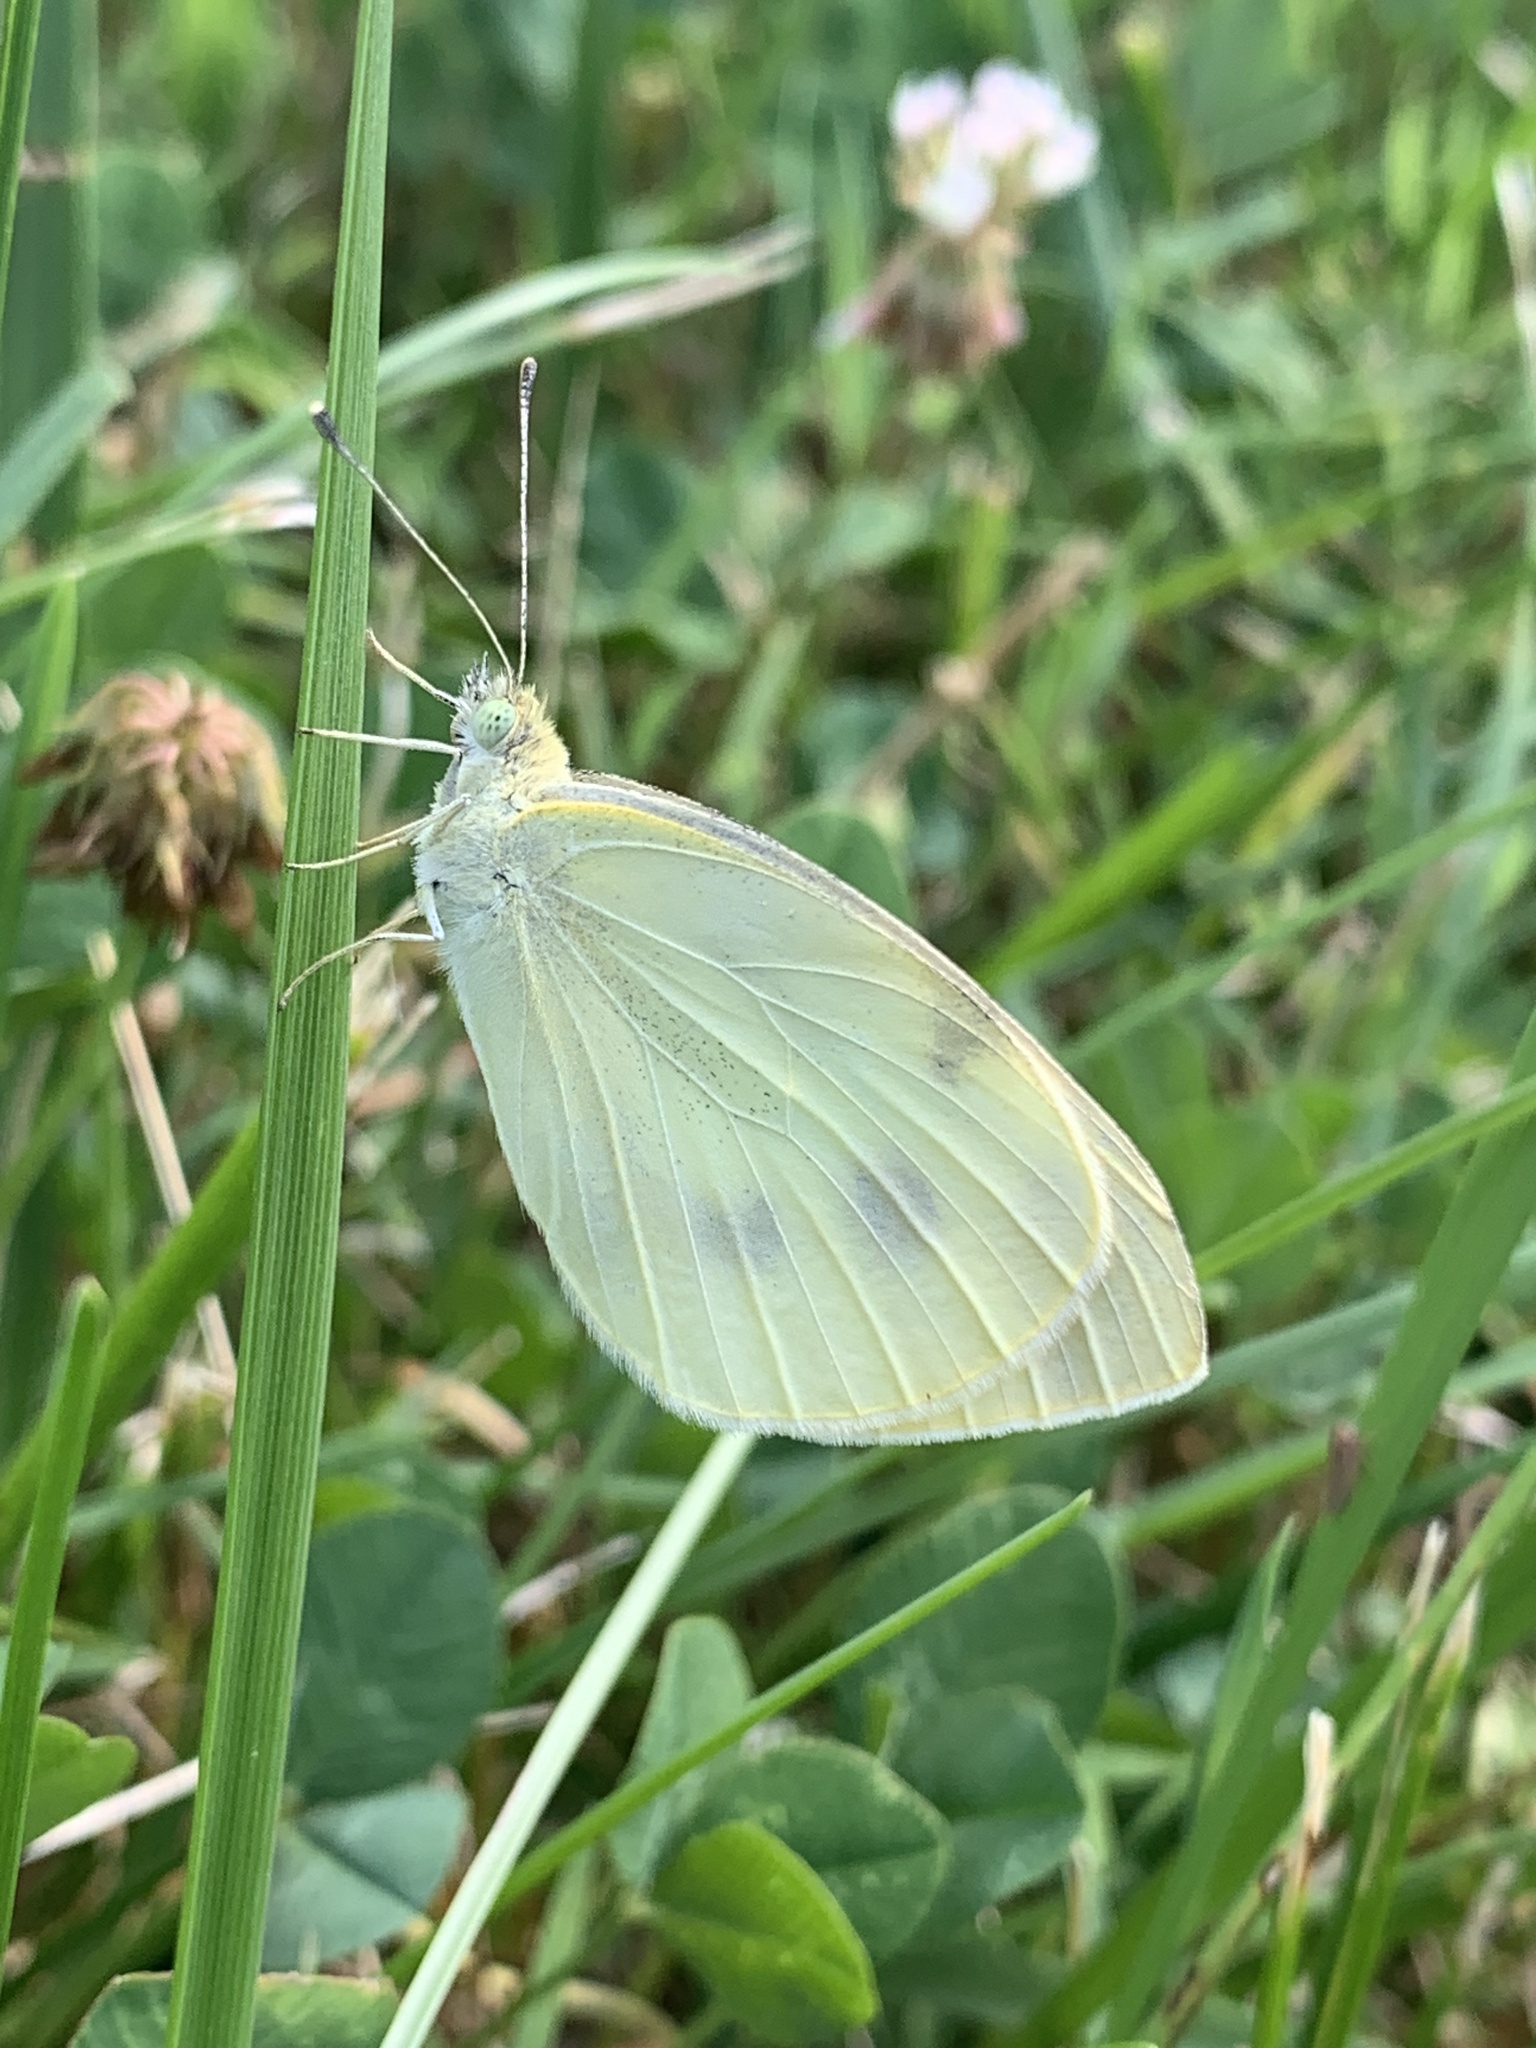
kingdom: Animalia
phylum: Arthropoda
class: Insecta
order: Lepidoptera
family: Pieridae
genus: Pieris
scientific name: Pieris rapae
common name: Small white
